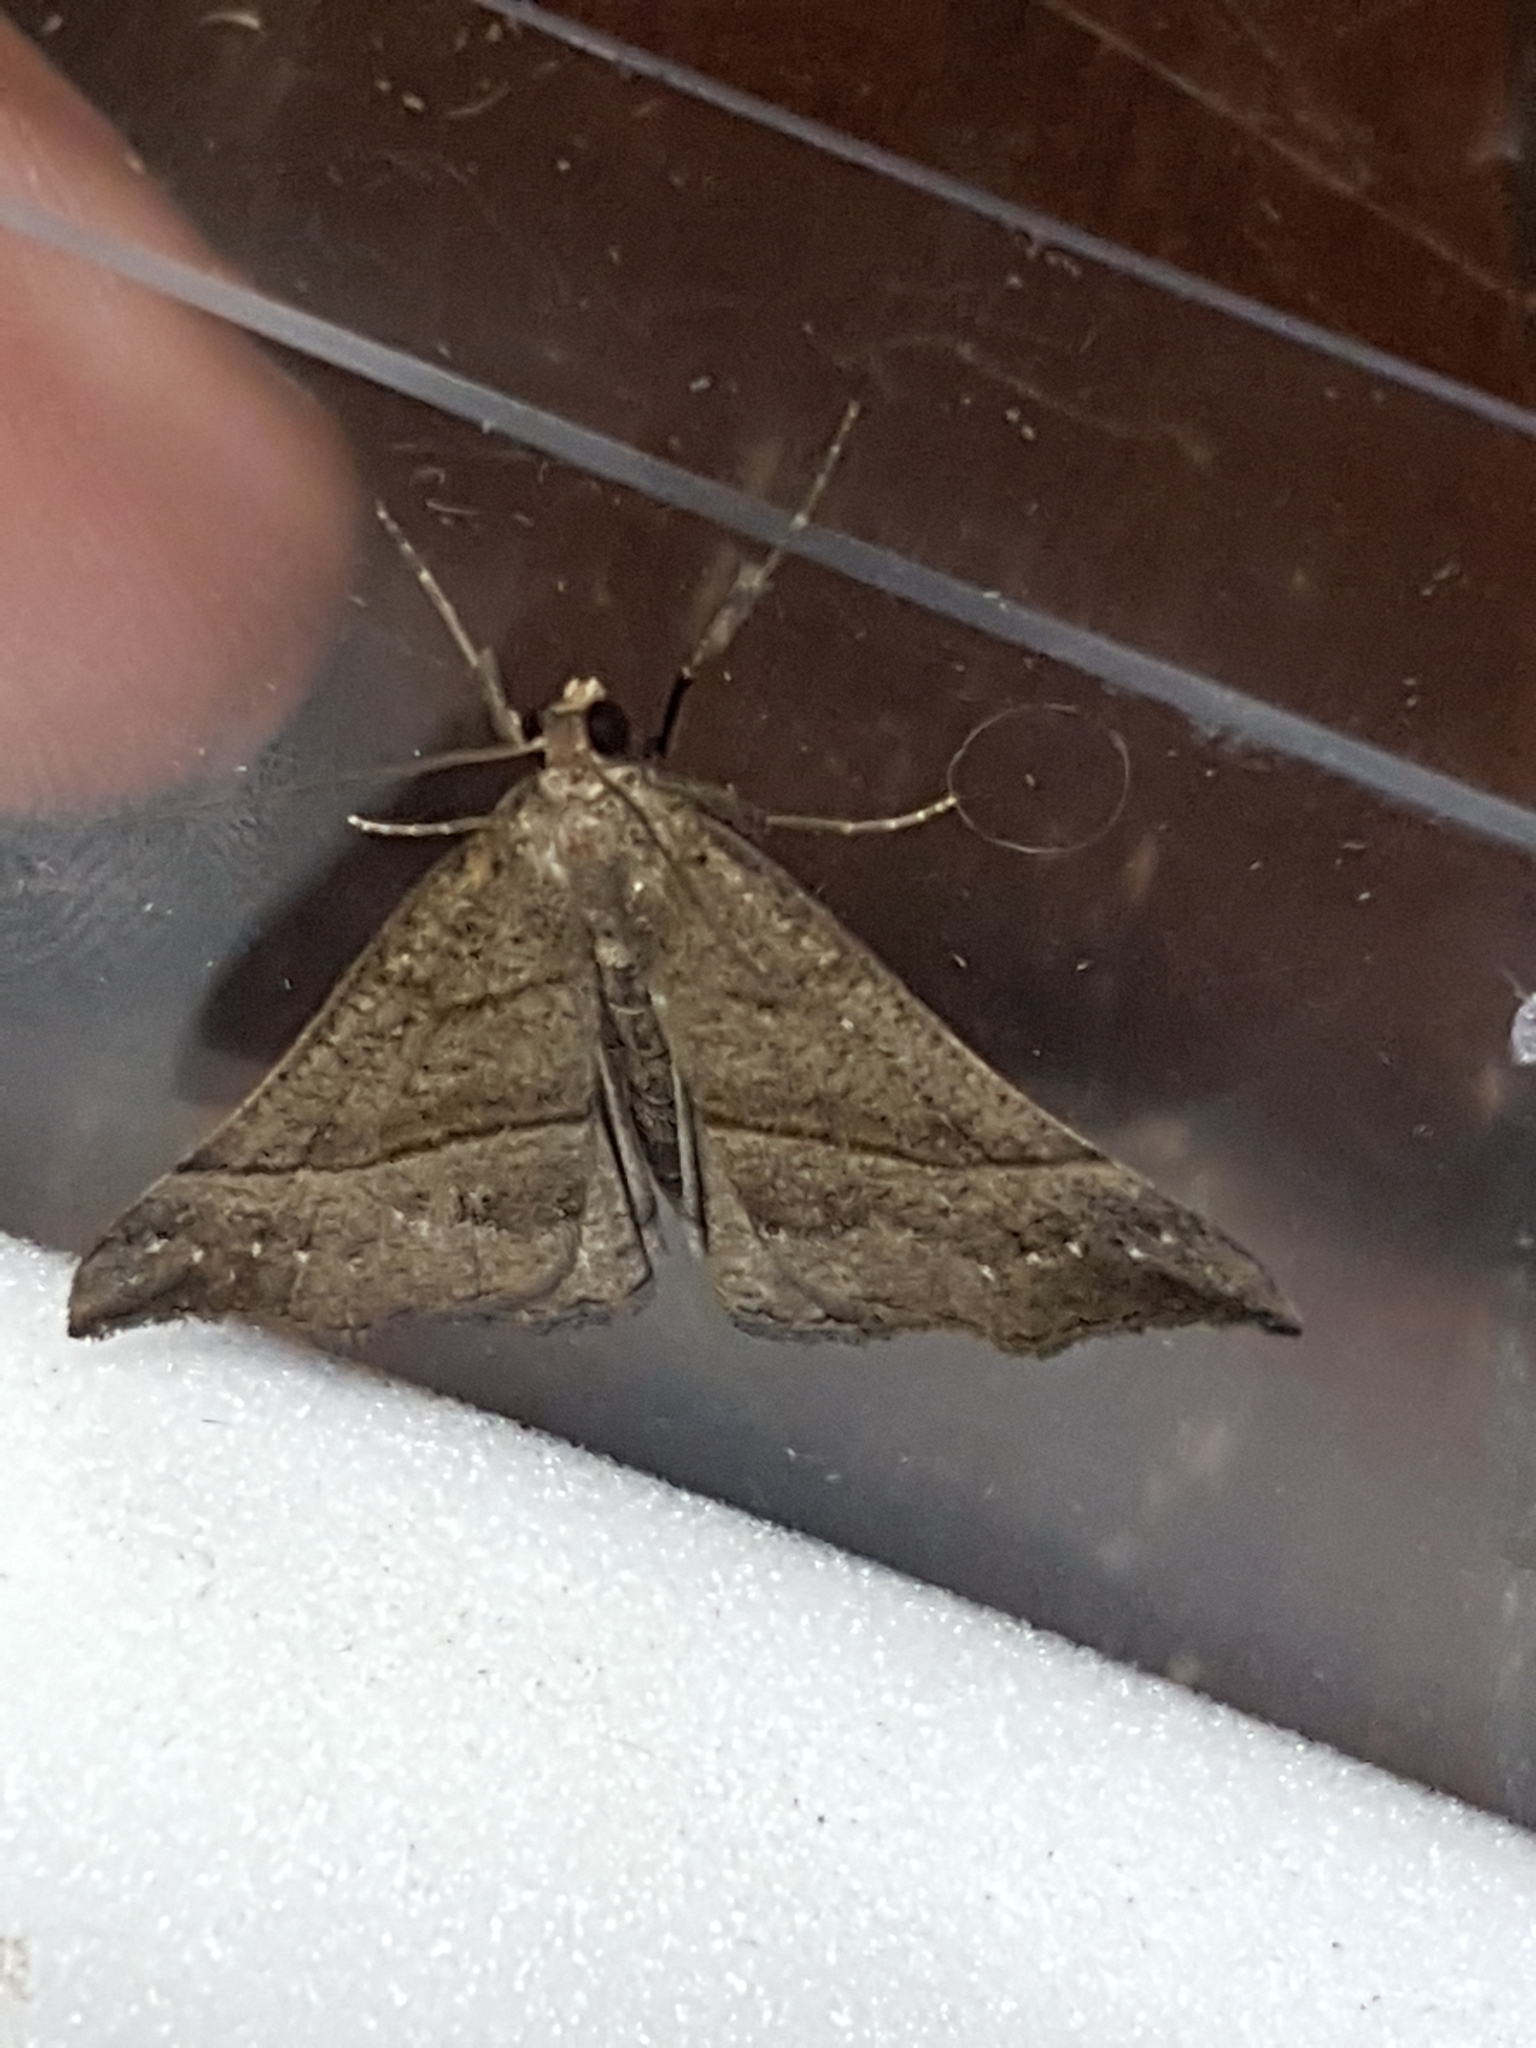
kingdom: Animalia
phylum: Arthropoda
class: Insecta
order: Lepidoptera
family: Erebidae
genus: Hypena
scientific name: Hypena proboscidalis
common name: Snout
